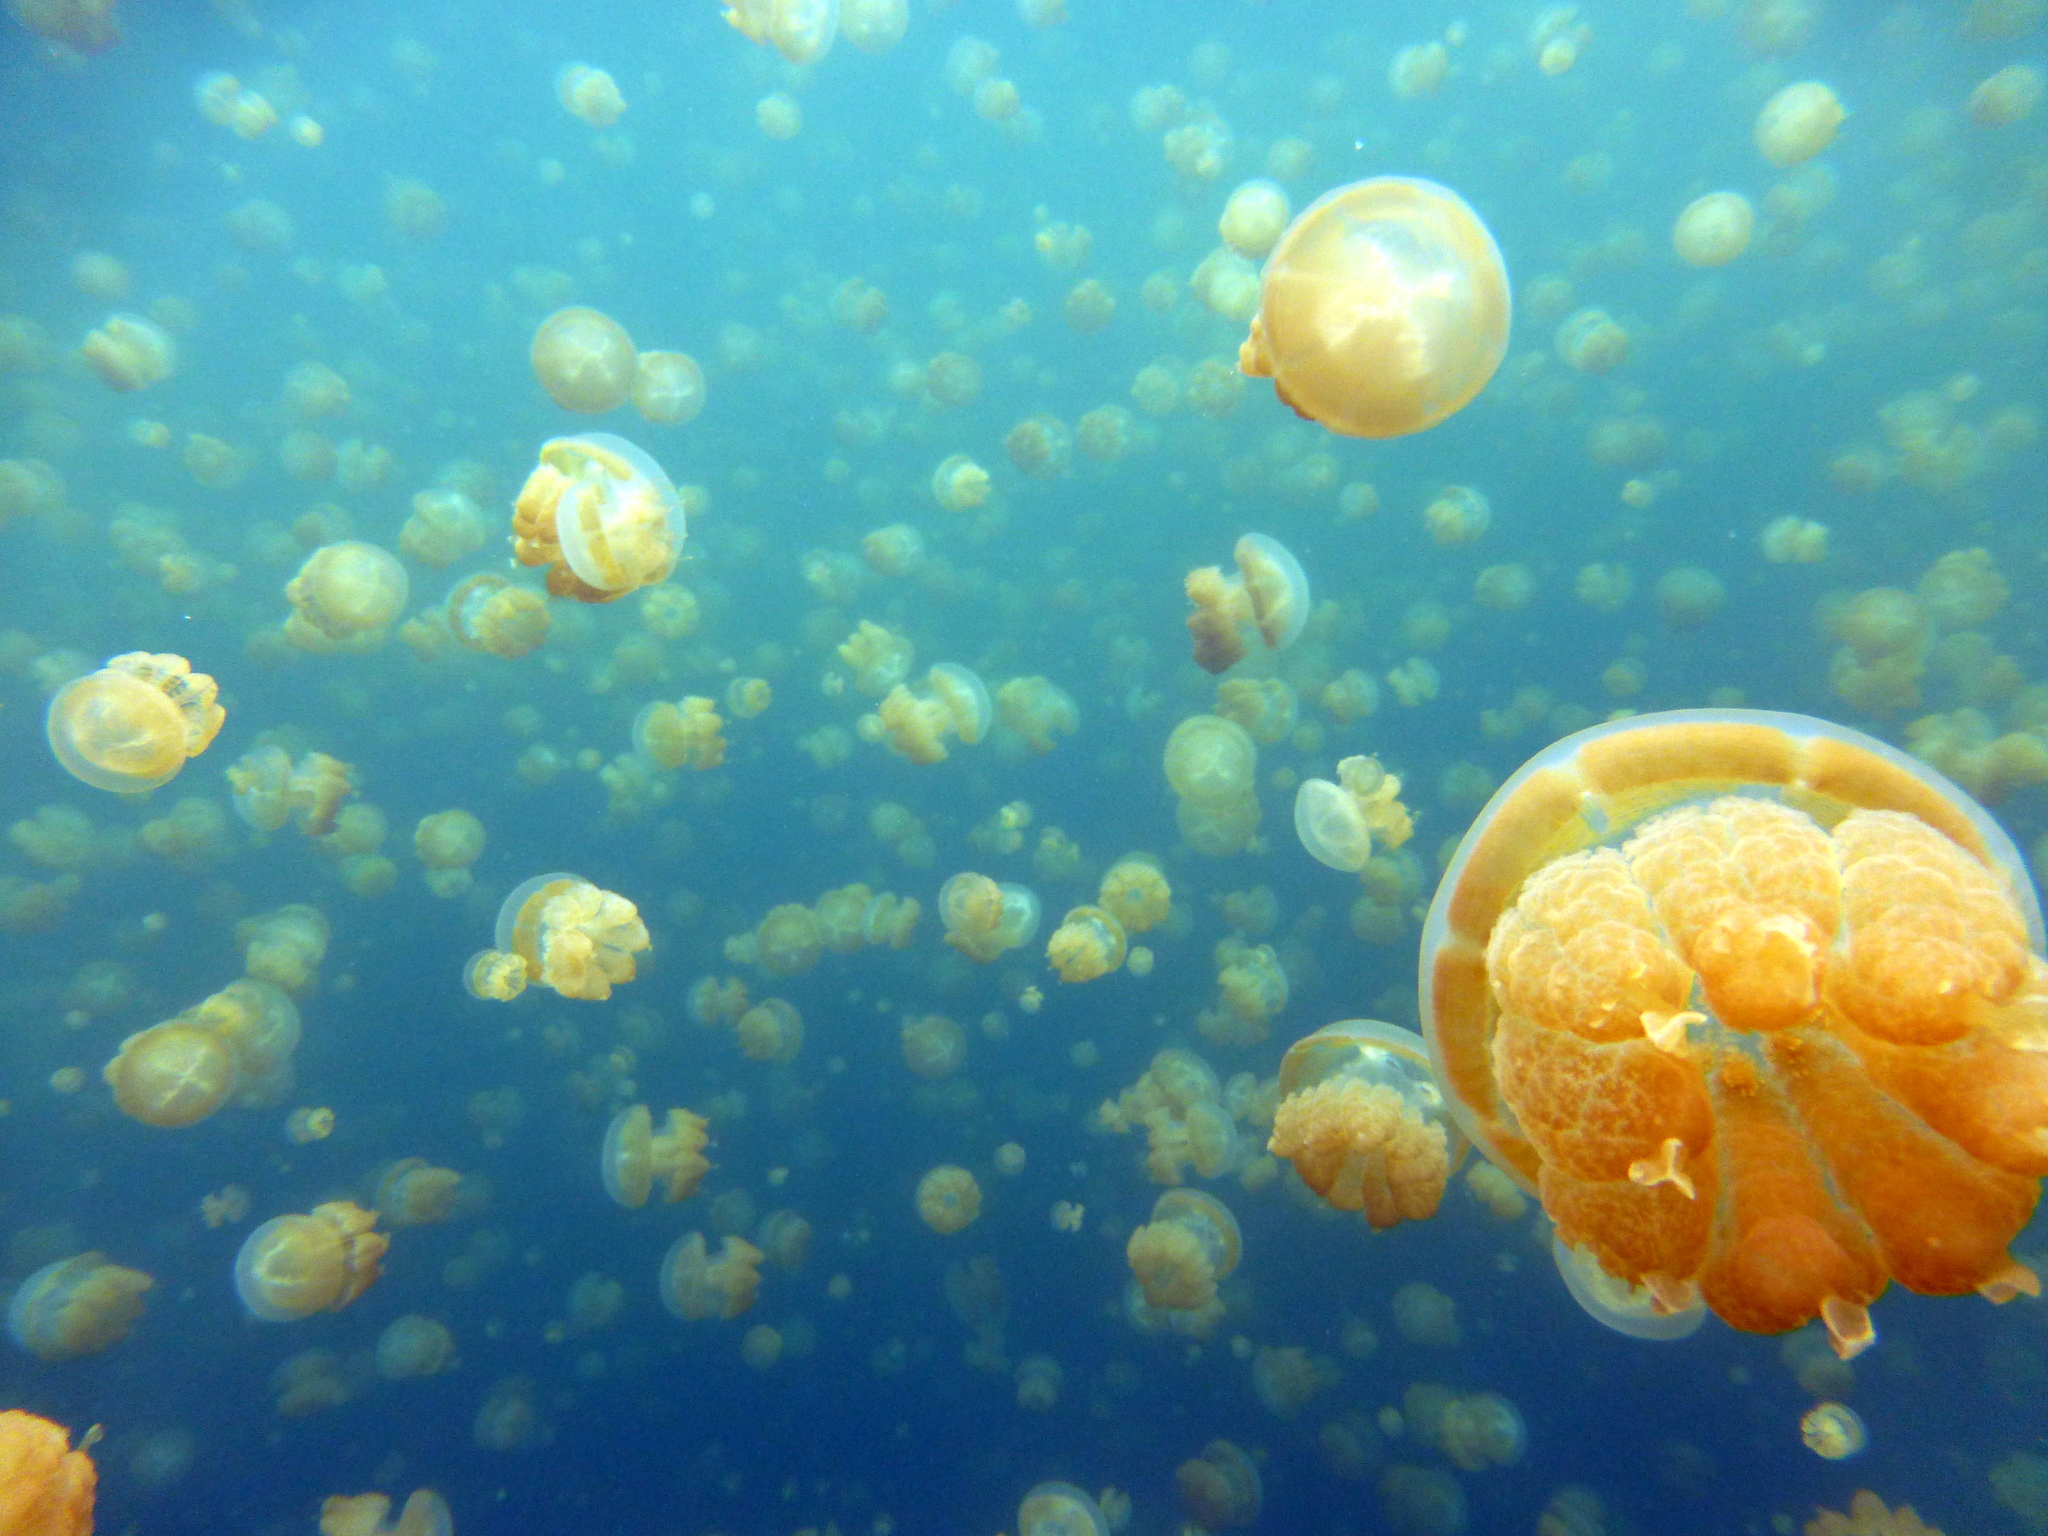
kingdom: Animalia
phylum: Cnidaria
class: Scyphozoa
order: Rhizostomeae
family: Mastigiidae
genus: Mastigias
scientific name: Mastigias papua
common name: Papuan jellyfish
